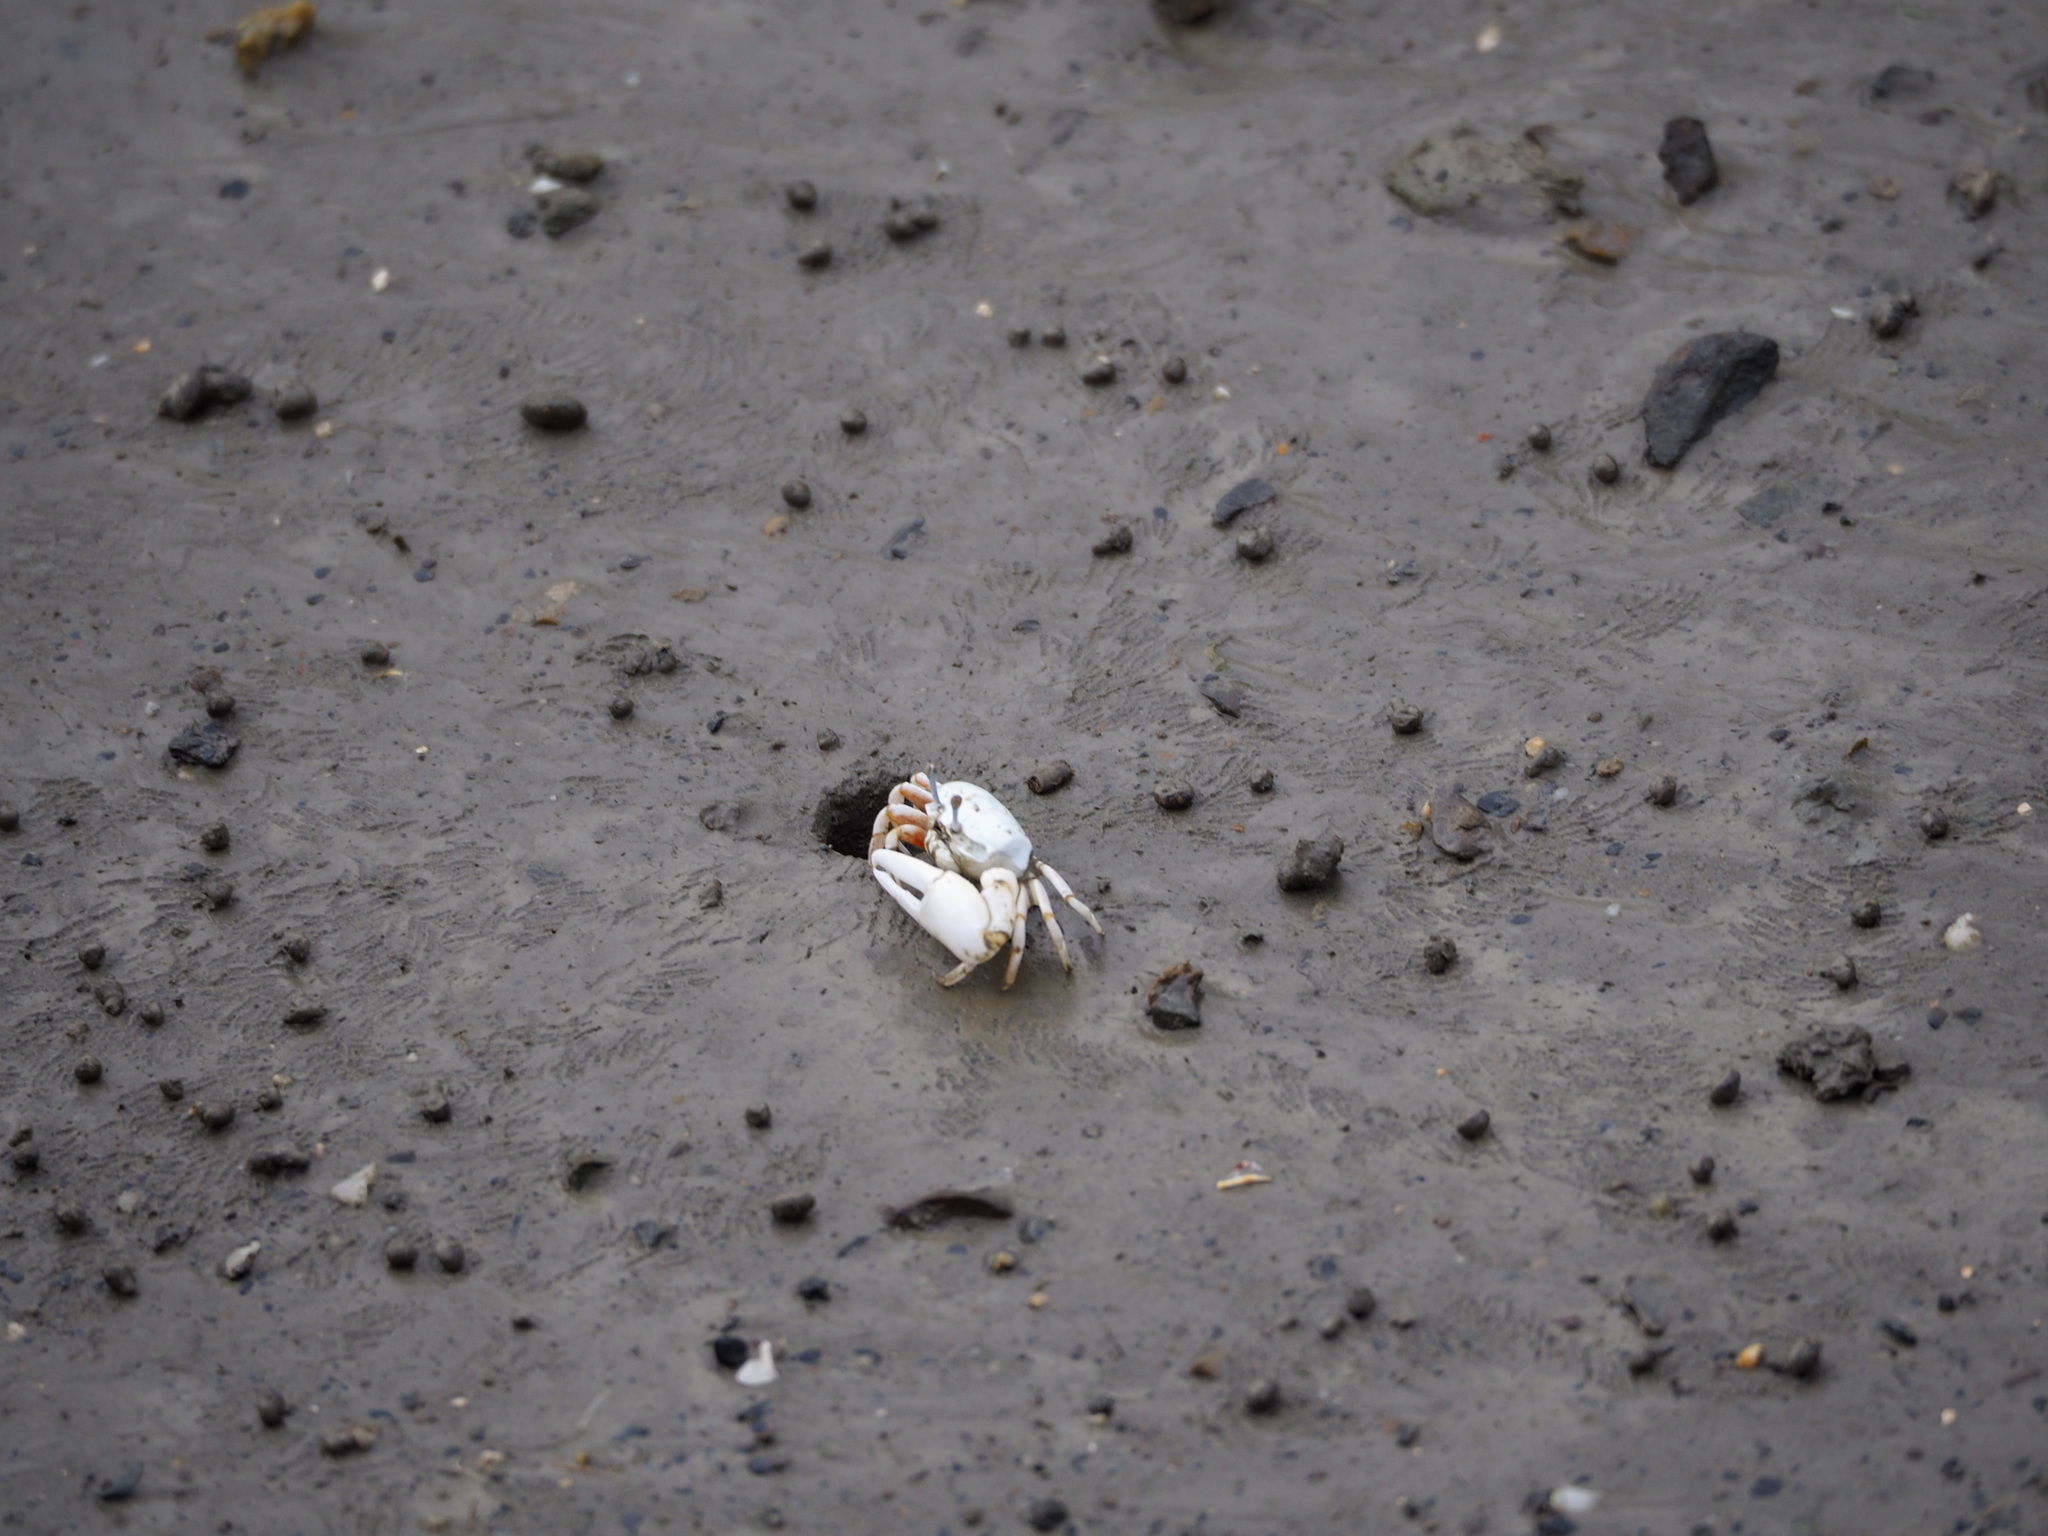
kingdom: Animalia
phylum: Arthropoda
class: Malacostraca
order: Decapoda
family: Ocypodidae
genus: Austruca
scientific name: Austruca lactea
